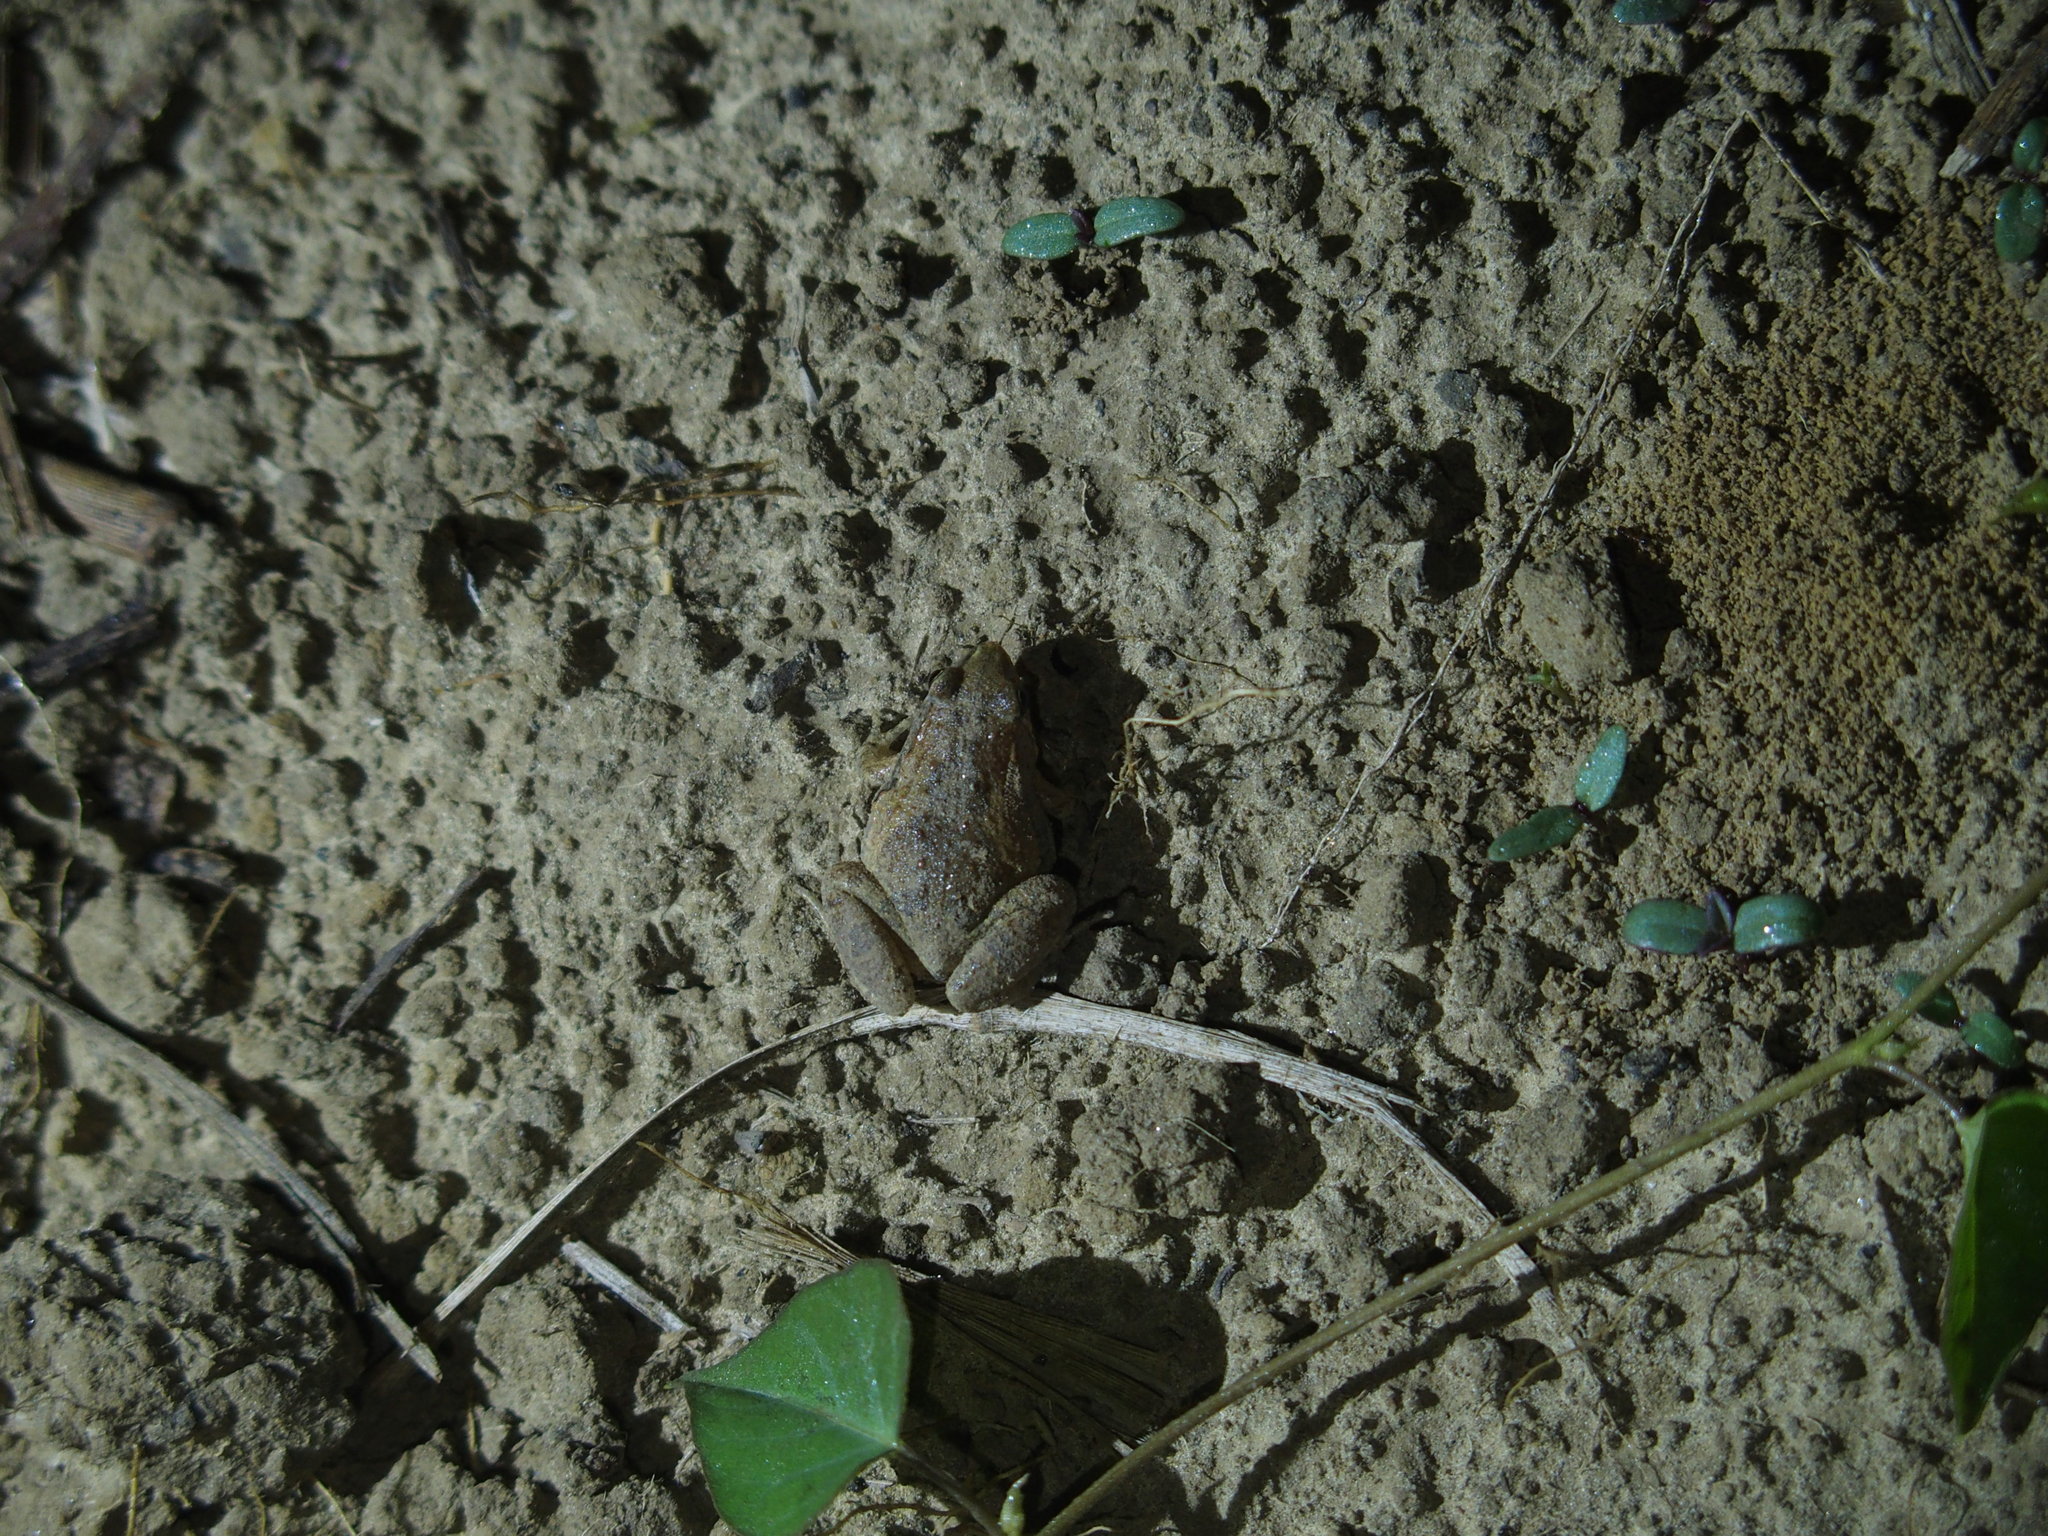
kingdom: Animalia
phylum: Chordata
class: Amphibia
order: Anura
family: Microhylidae
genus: Microhyla
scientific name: Microhyla fissipes
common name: Ornate narrow-mouthed frog
